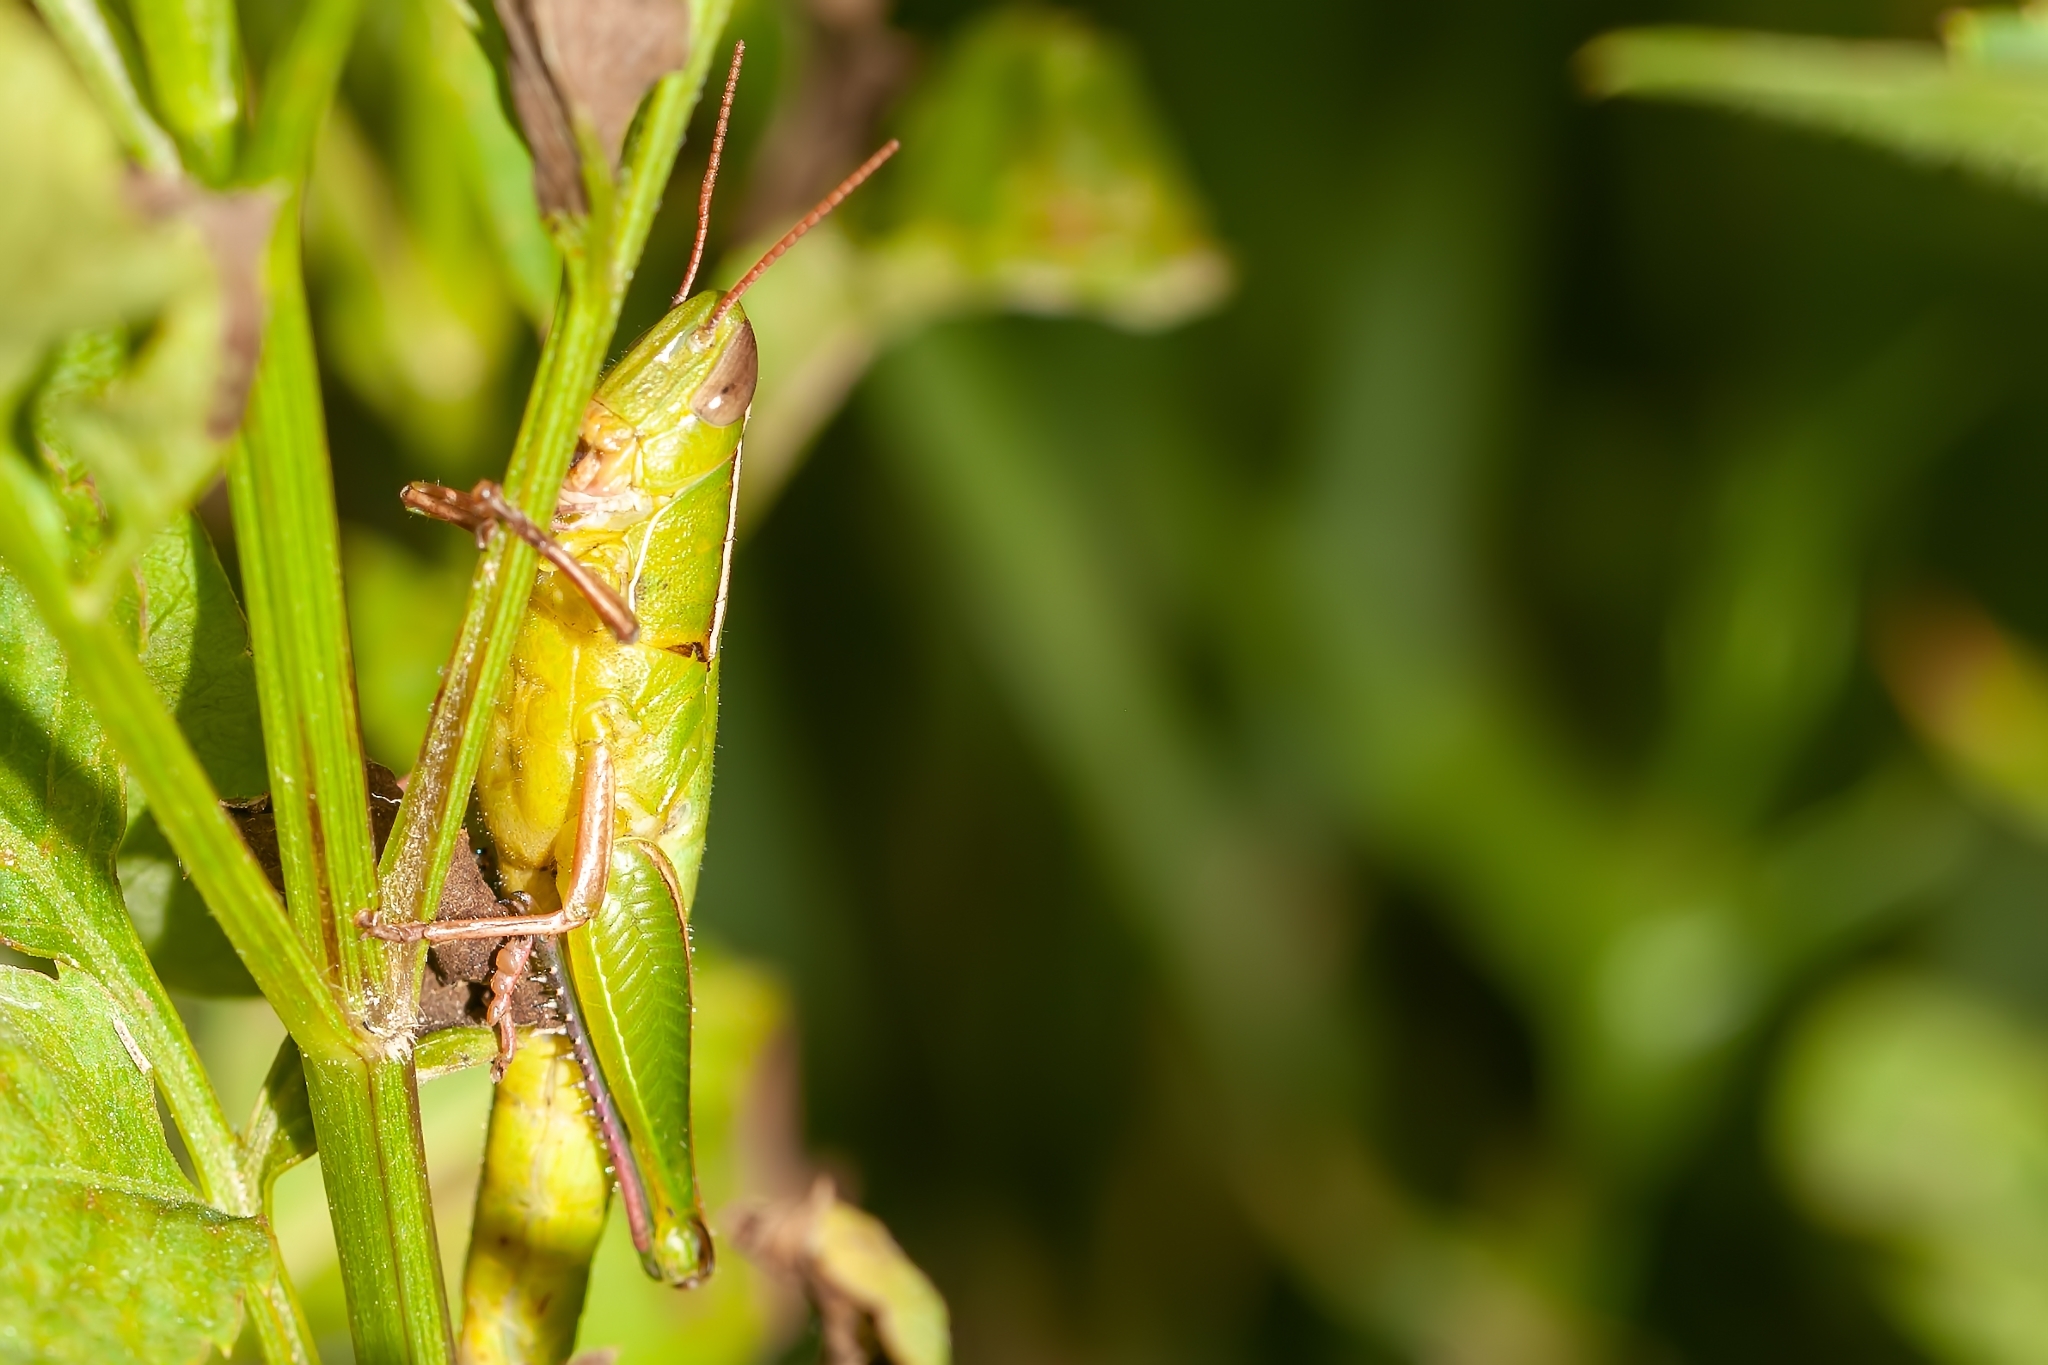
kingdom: Animalia
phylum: Arthropoda
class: Insecta
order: Orthoptera
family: Acrididae
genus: Aptenopedes
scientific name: Aptenopedes sphenarioides
